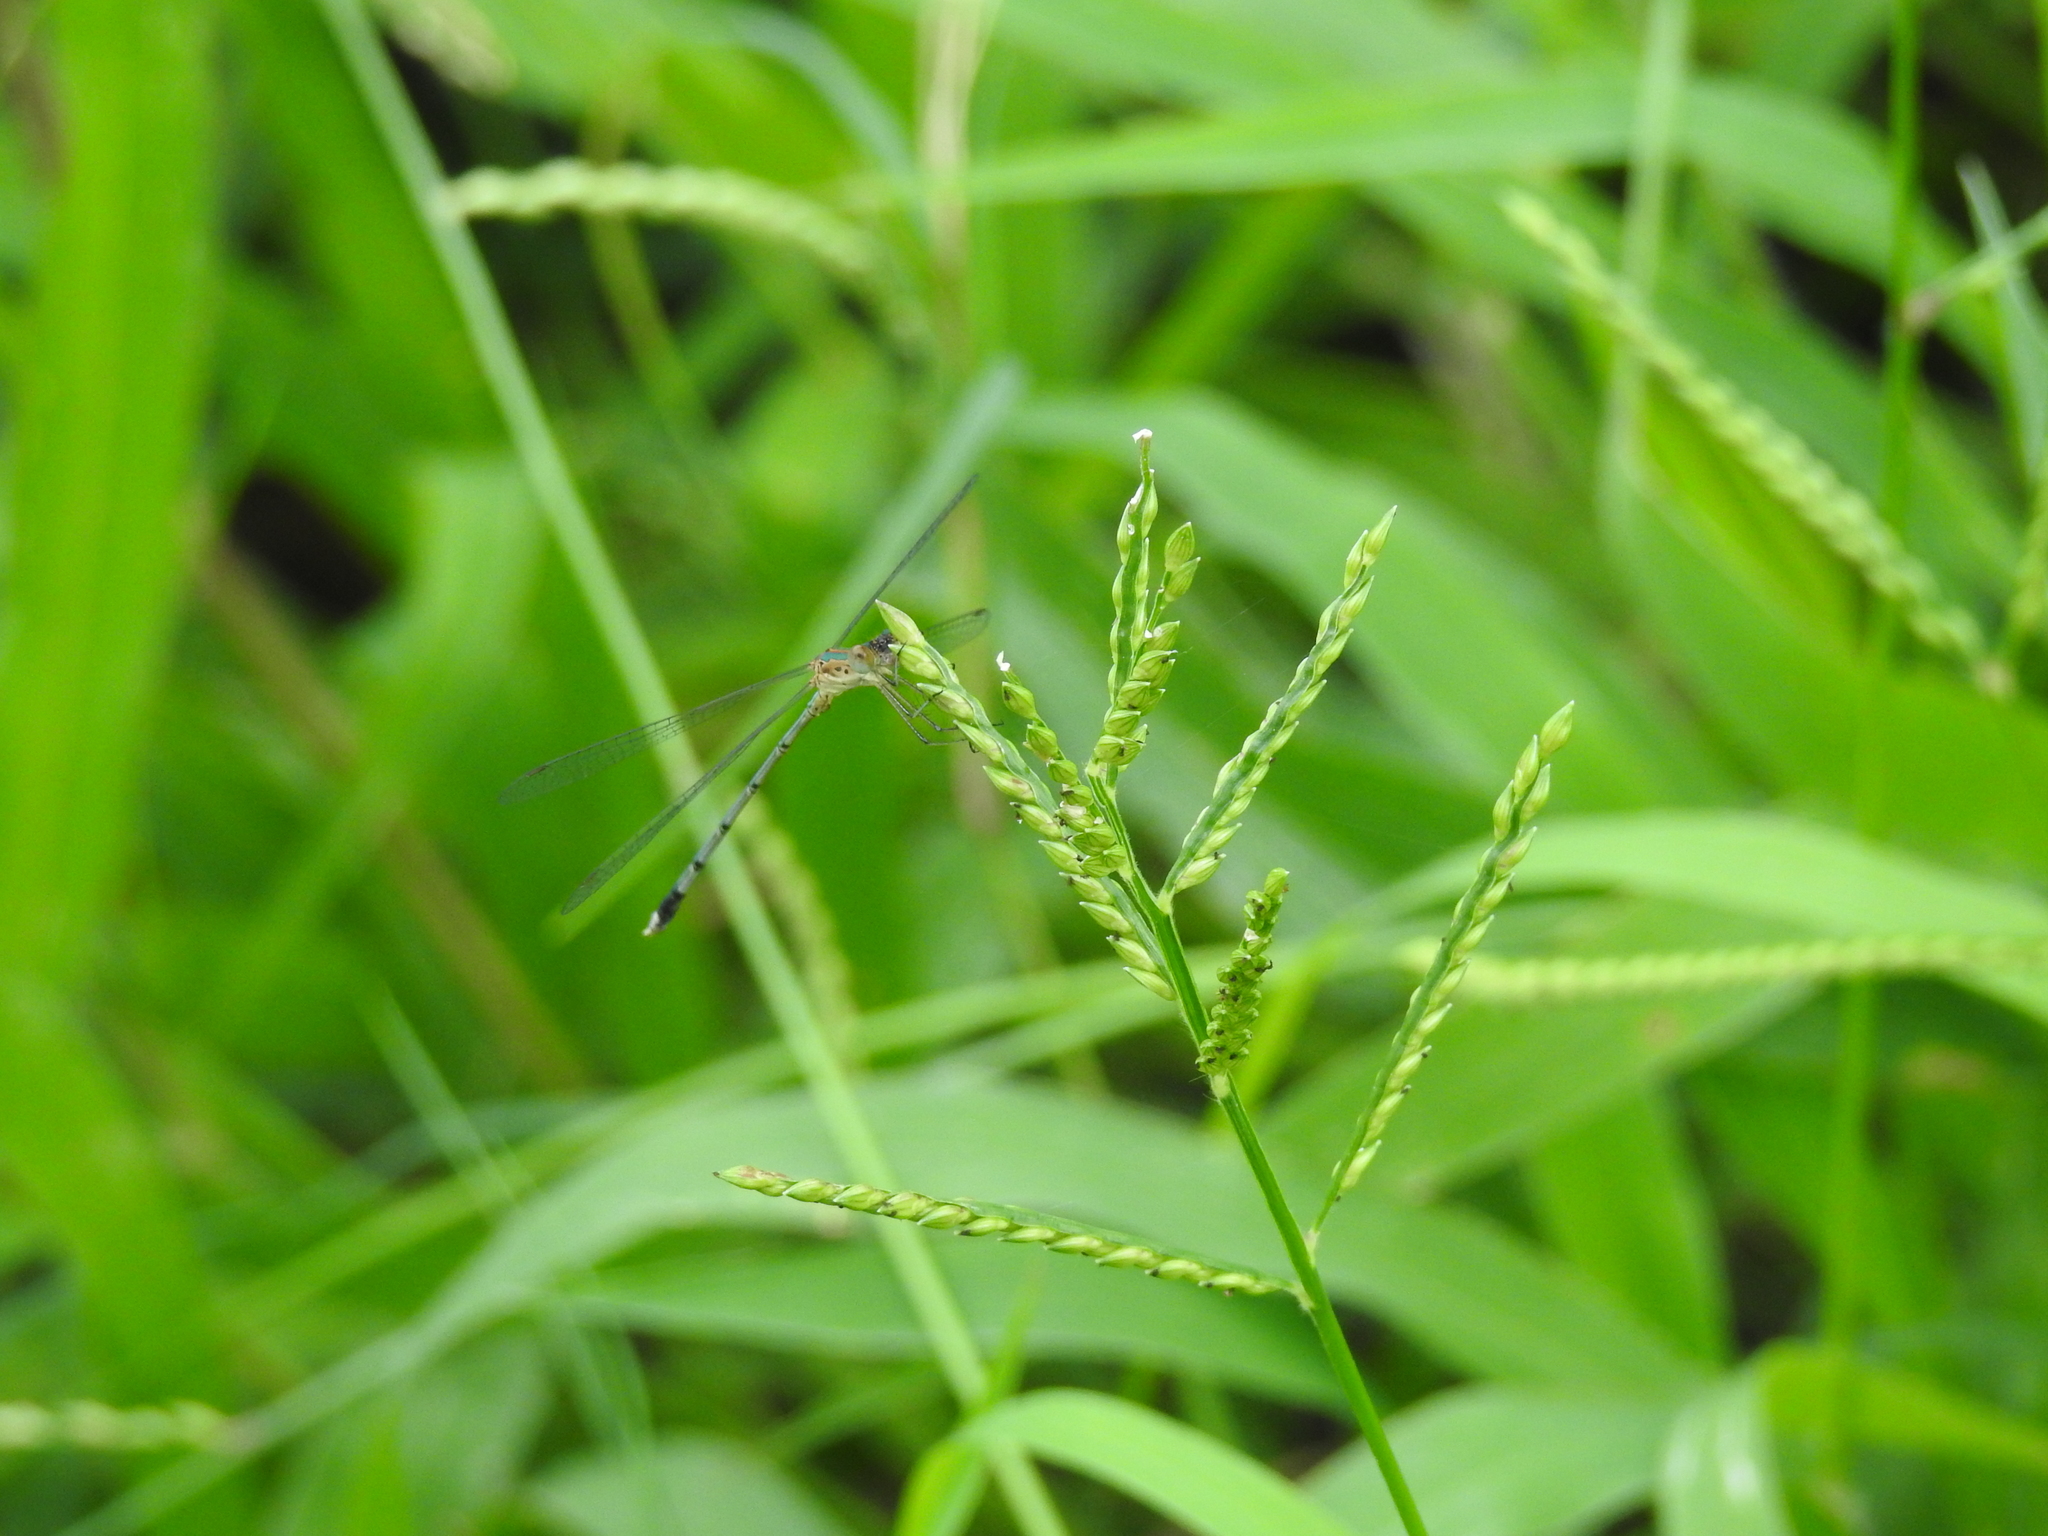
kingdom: Animalia
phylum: Arthropoda
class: Insecta
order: Odonata
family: Lestidae
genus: Lestes
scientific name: Lestes elatus
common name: Emerald spreadwing
